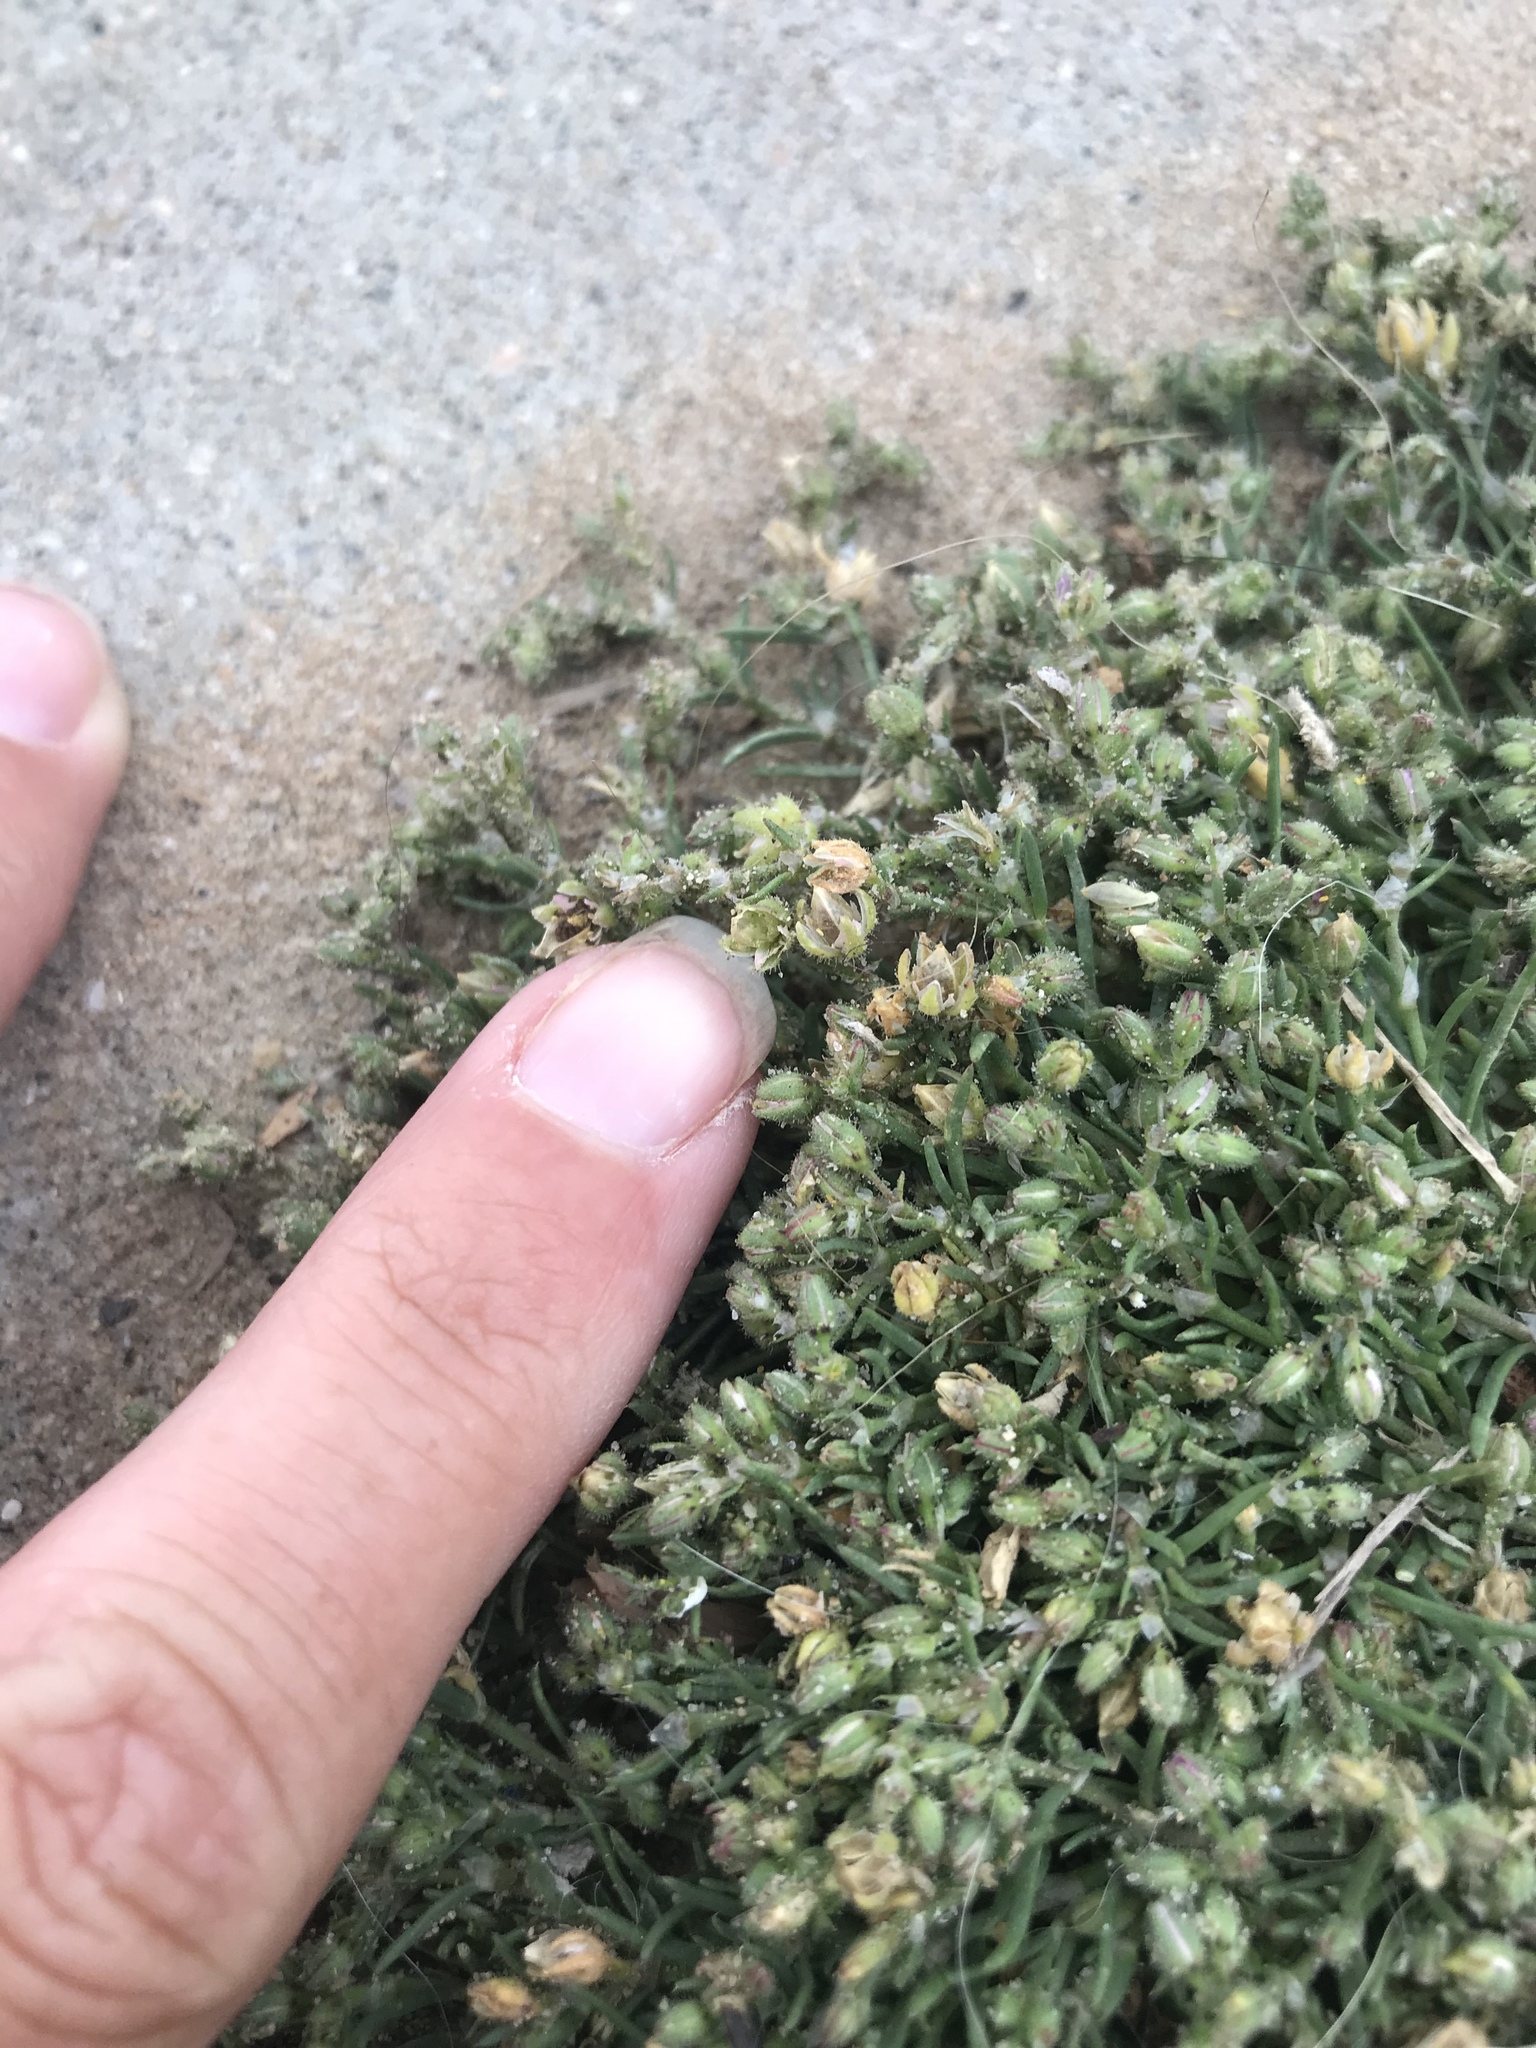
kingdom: Plantae
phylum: Tracheophyta
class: Magnoliopsida
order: Caryophyllales
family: Caryophyllaceae
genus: Spergularia
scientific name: Spergularia marina
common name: Lesser sea-spurrey
